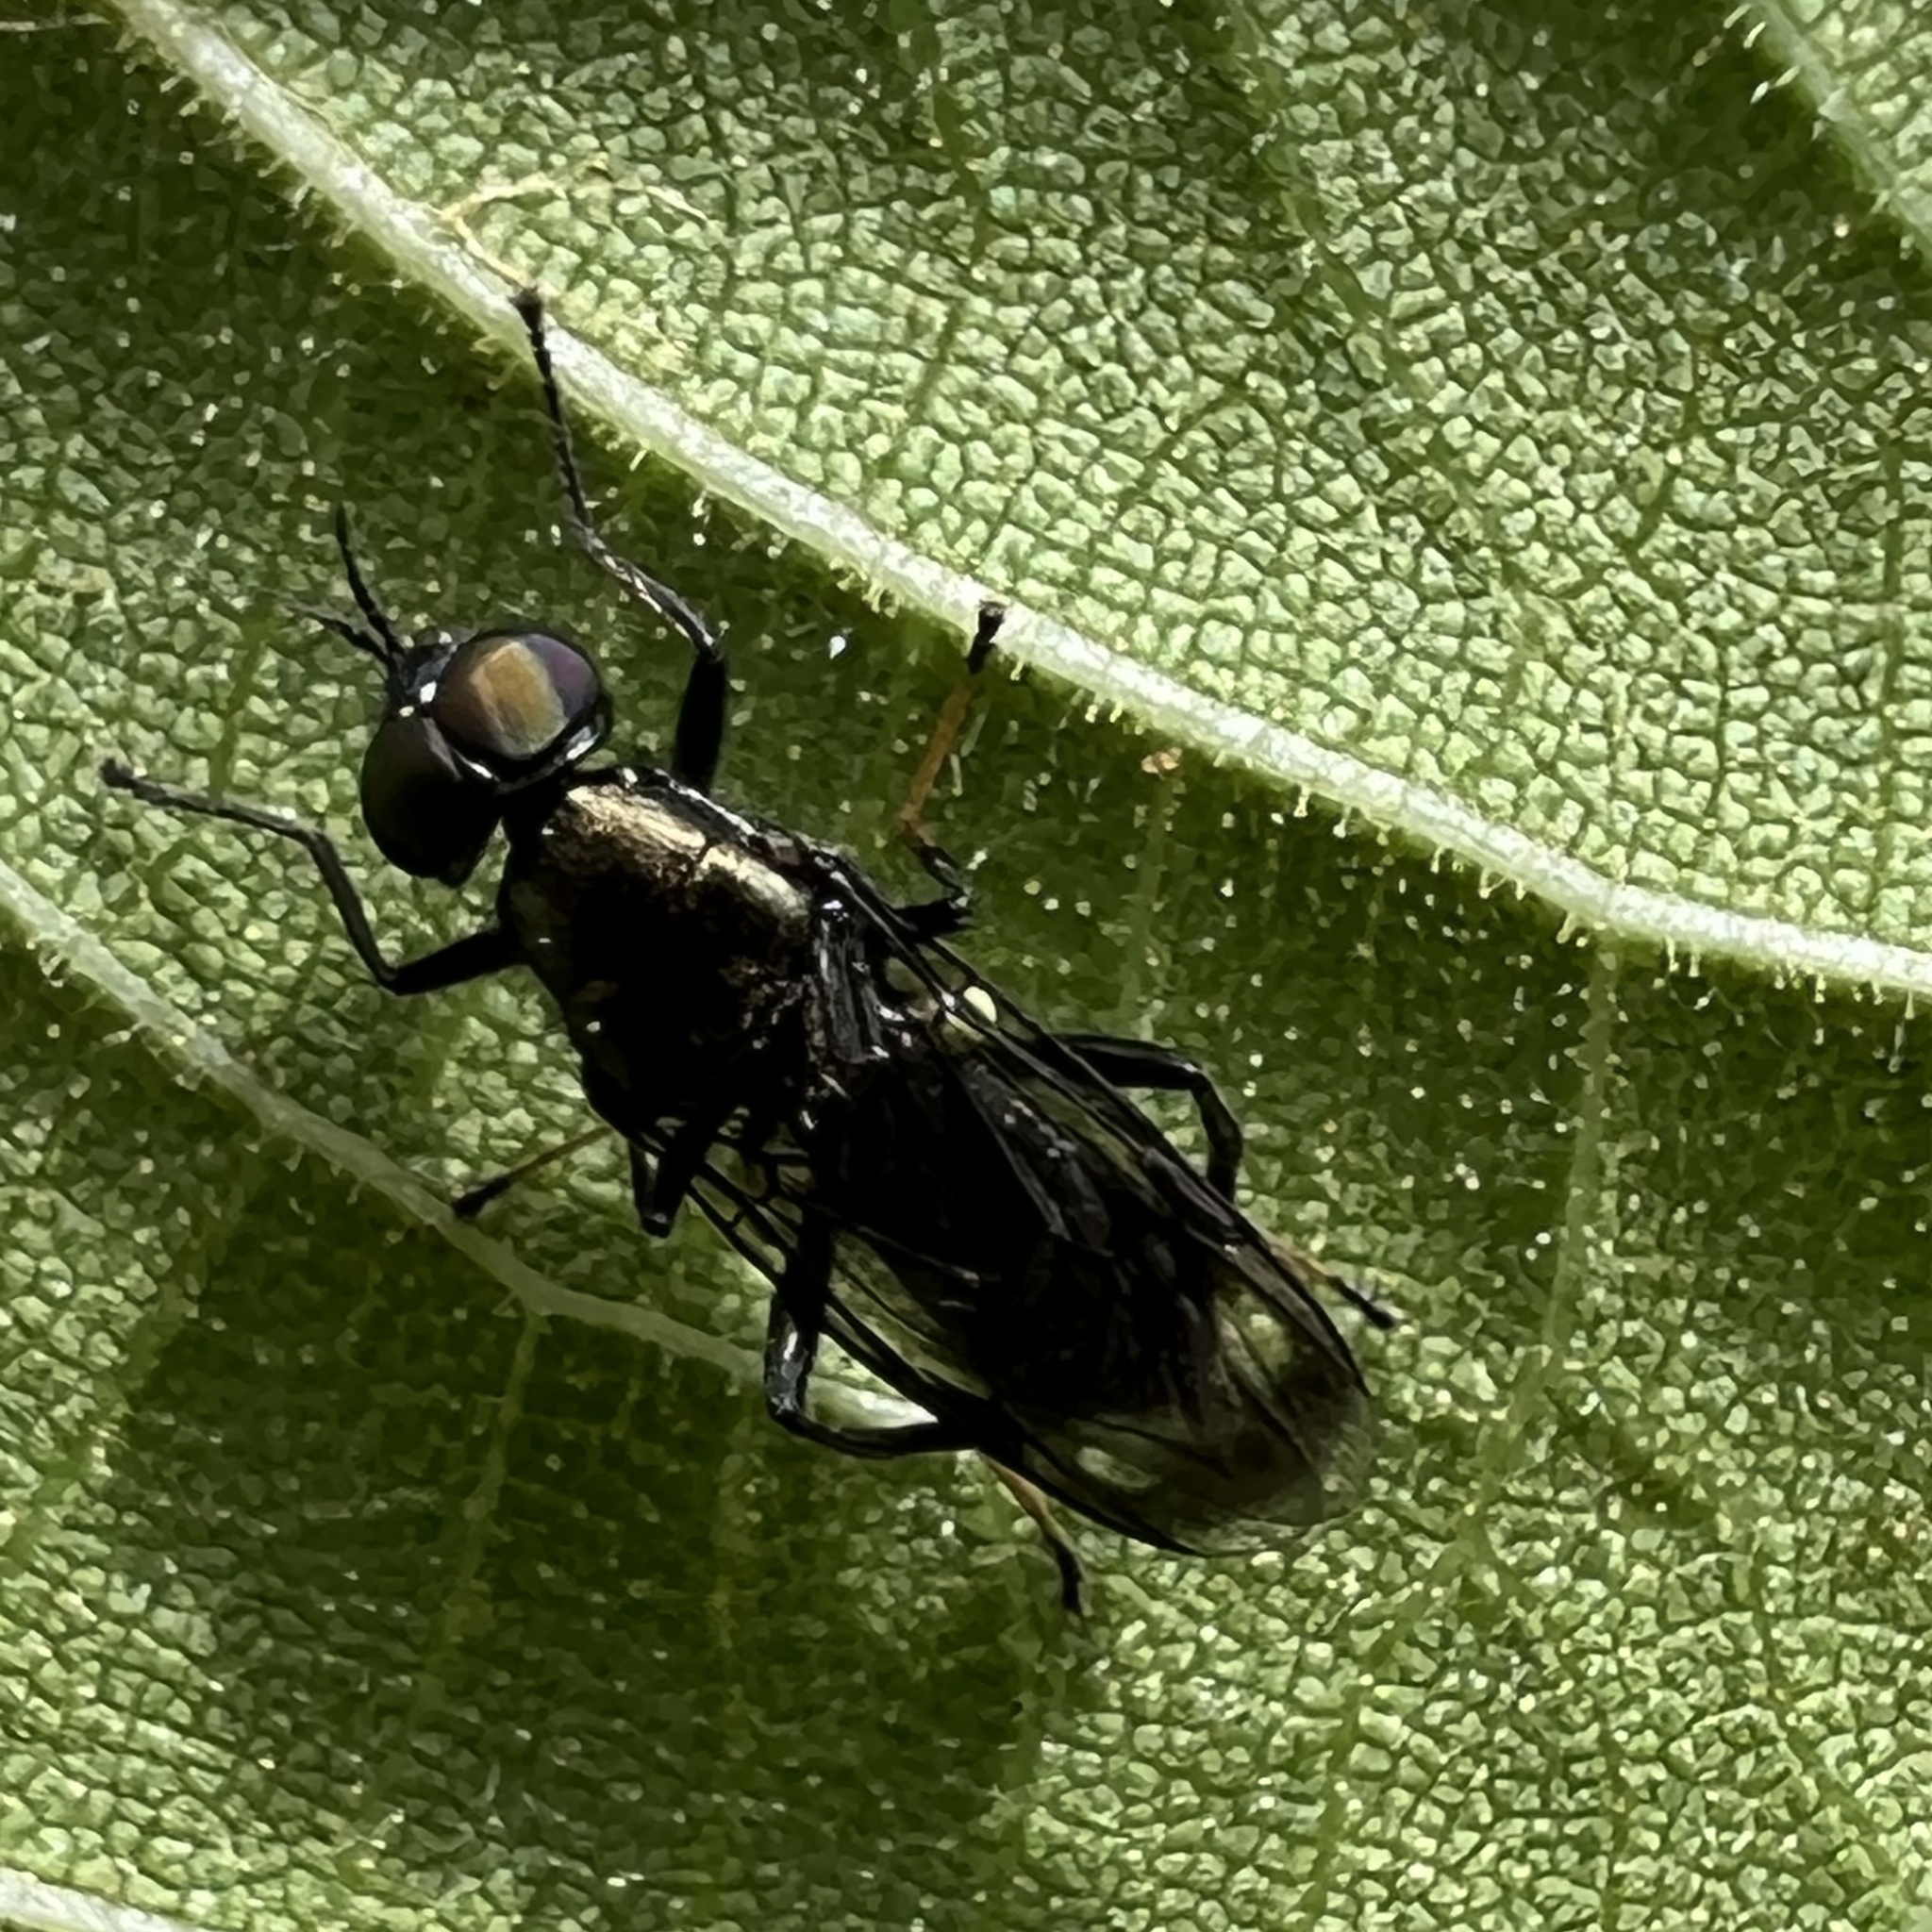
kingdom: Animalia
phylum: Arthropoda
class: Insecta
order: Diptera
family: Stratiomyidae
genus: Myxosargus
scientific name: Myxosargus nigricormis
